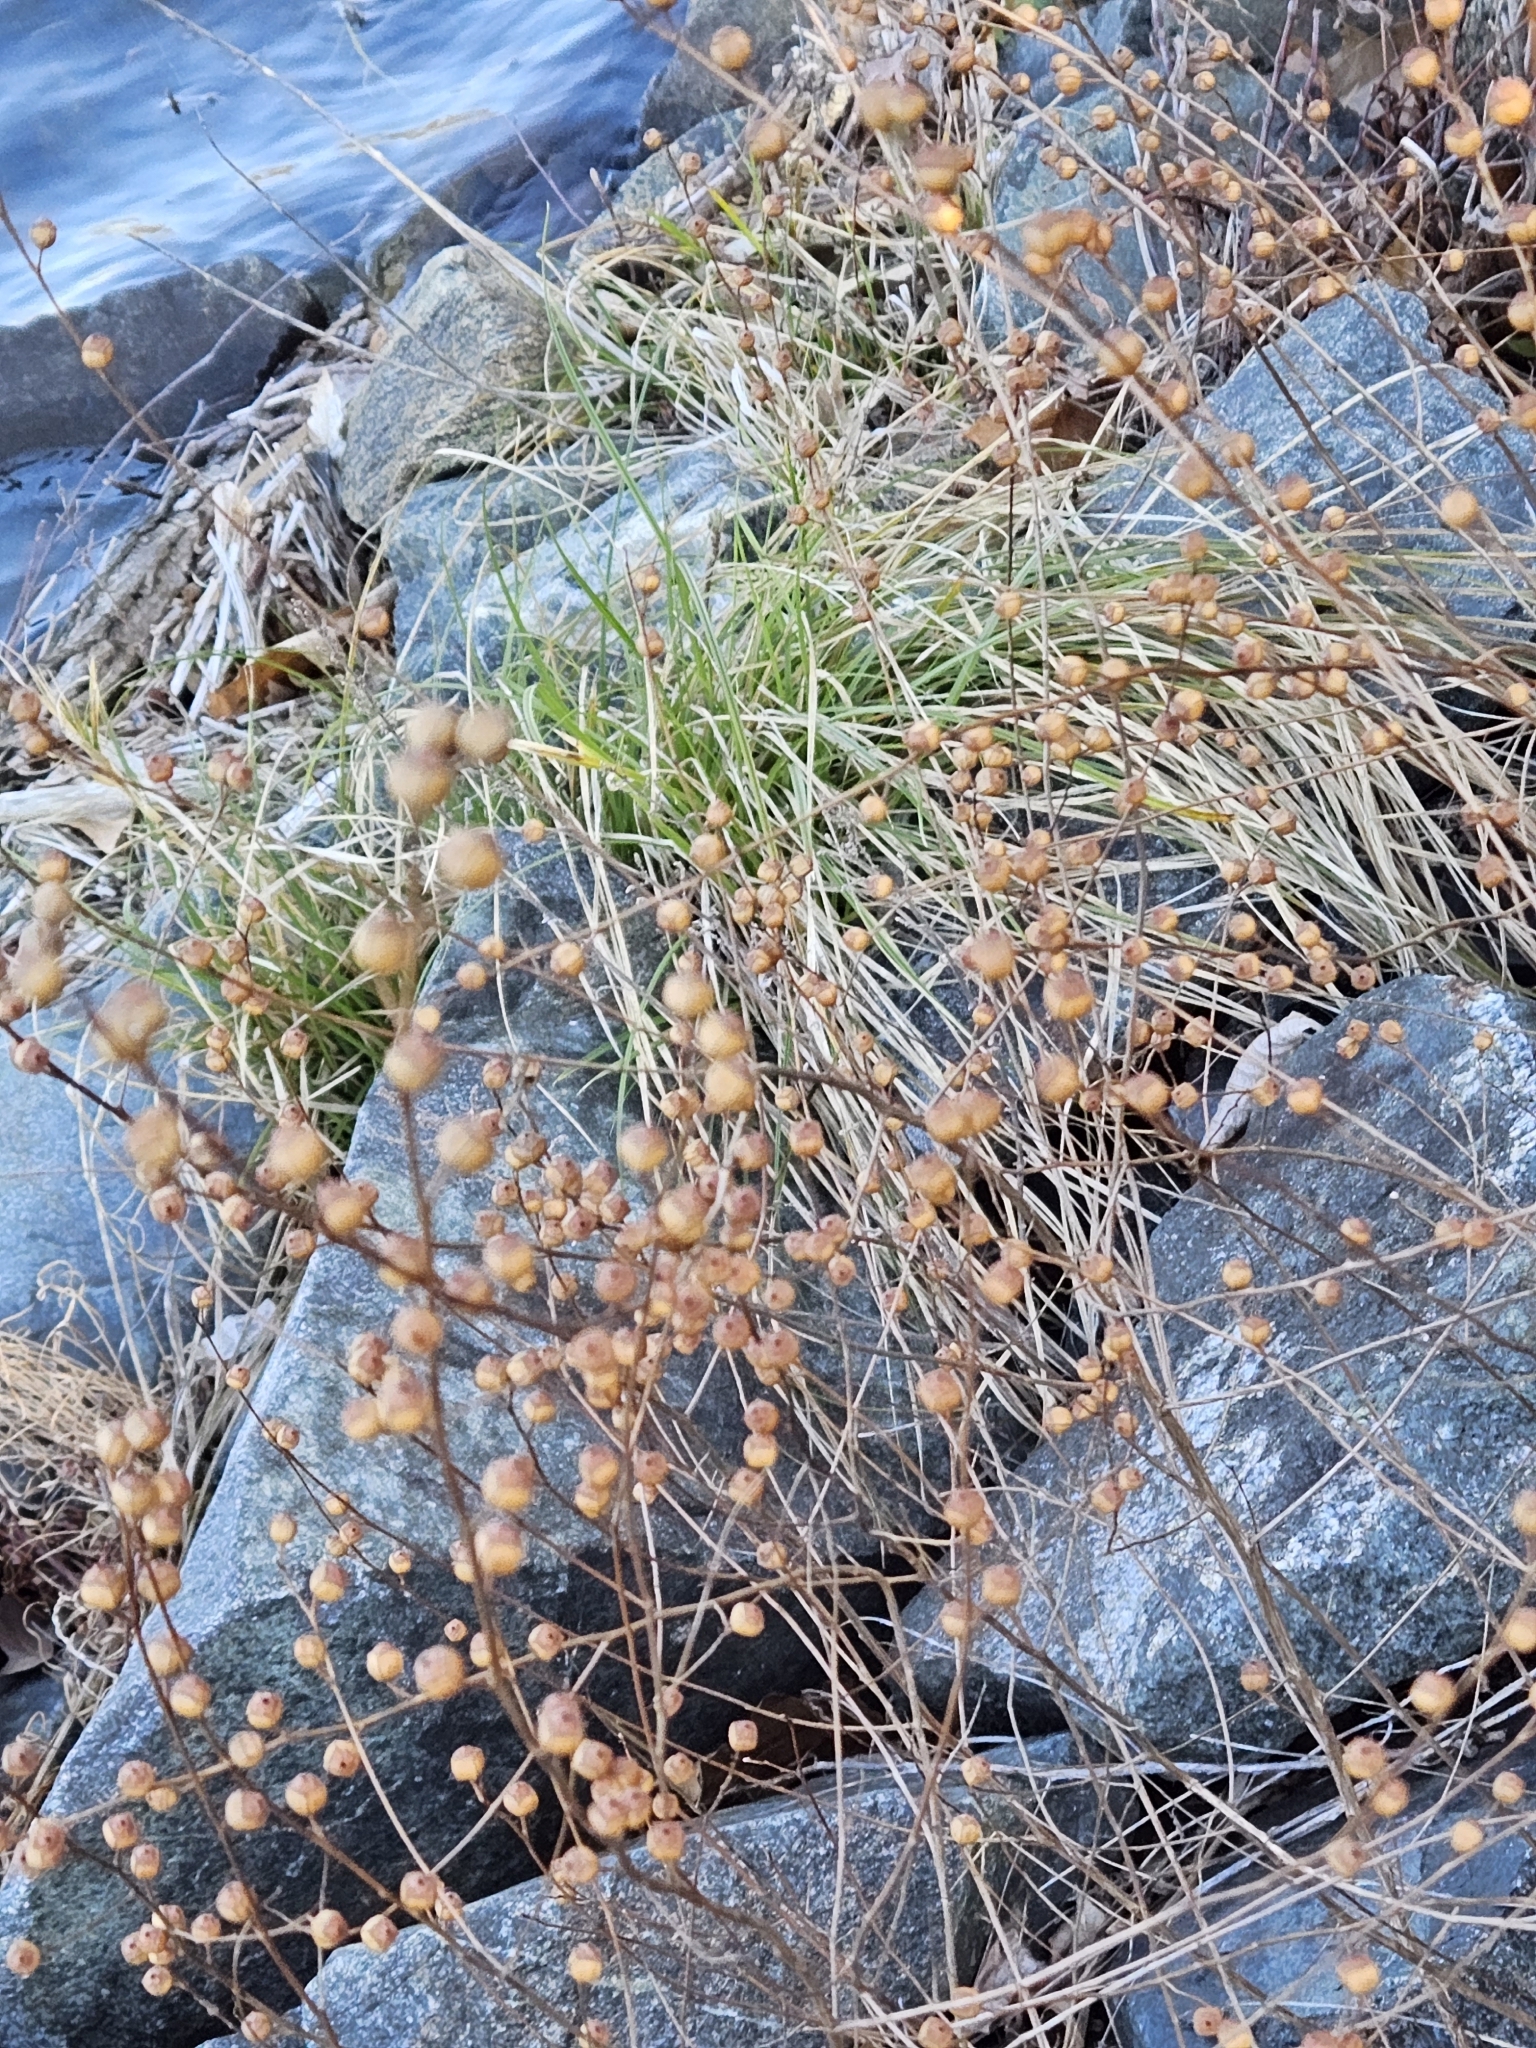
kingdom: Plantae
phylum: Tracheophyta
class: Magnoliopsida
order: Myrtales
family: Onagraceae
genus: Ludwigia
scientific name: Ludwigia alternifolia
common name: Rattlebox
